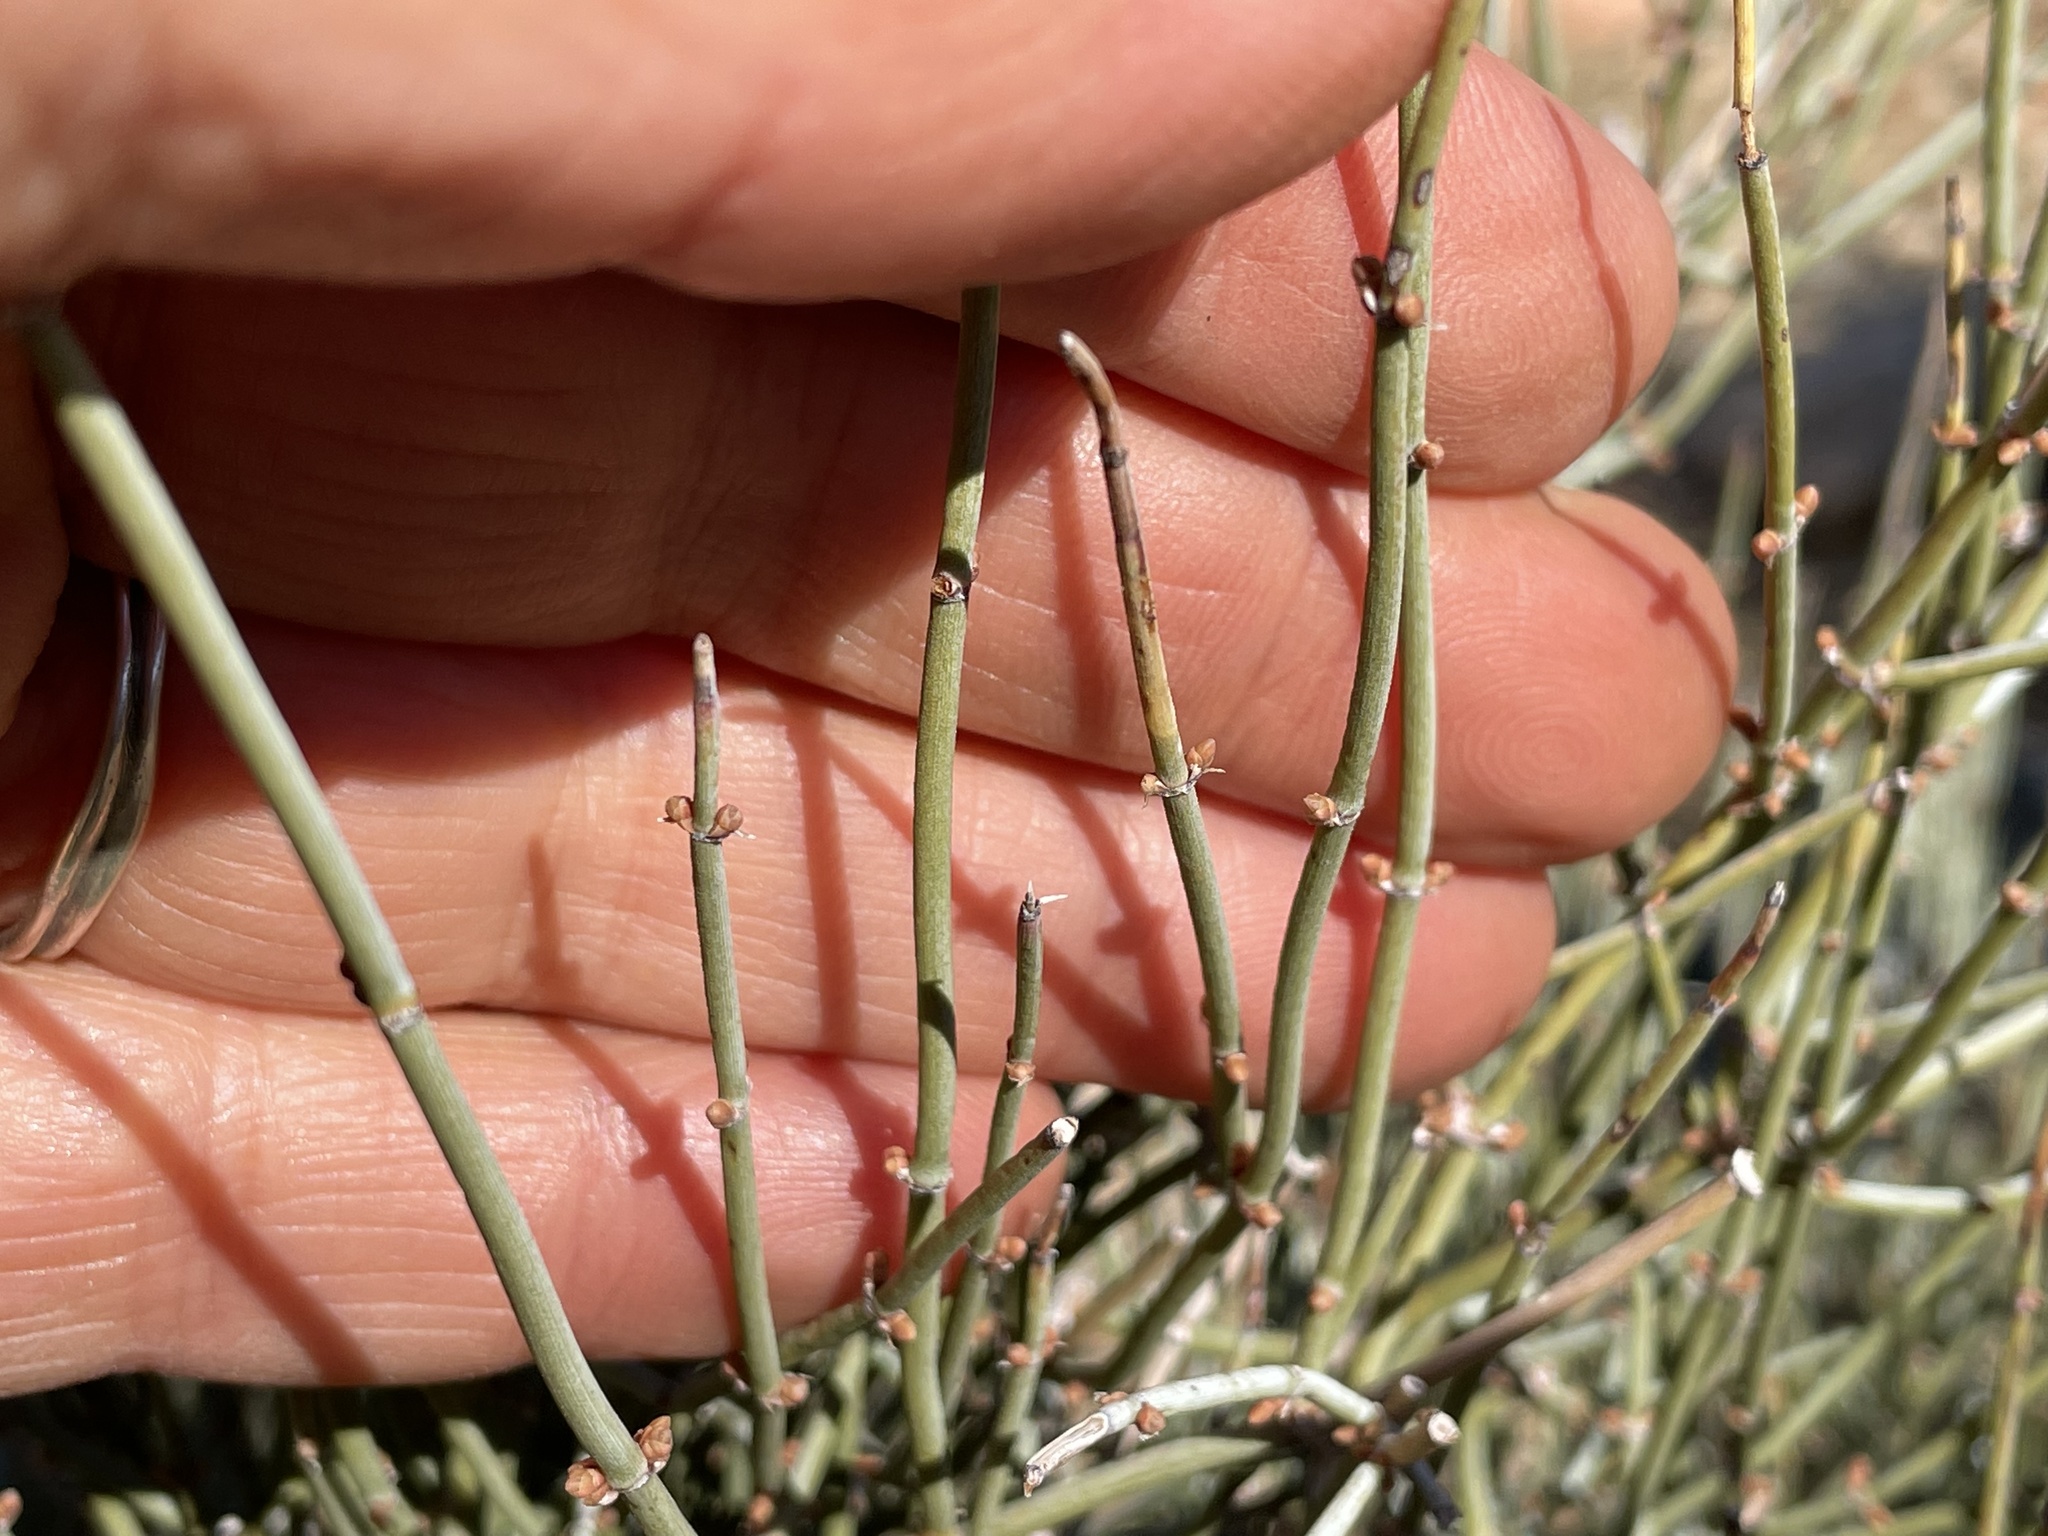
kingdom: Plantae
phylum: Tracheophyta
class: Gnetopsida
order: Ephedrales
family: Ephedraceae
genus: Ephedra
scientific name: Ephedra aspera
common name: Boundary ephedra
